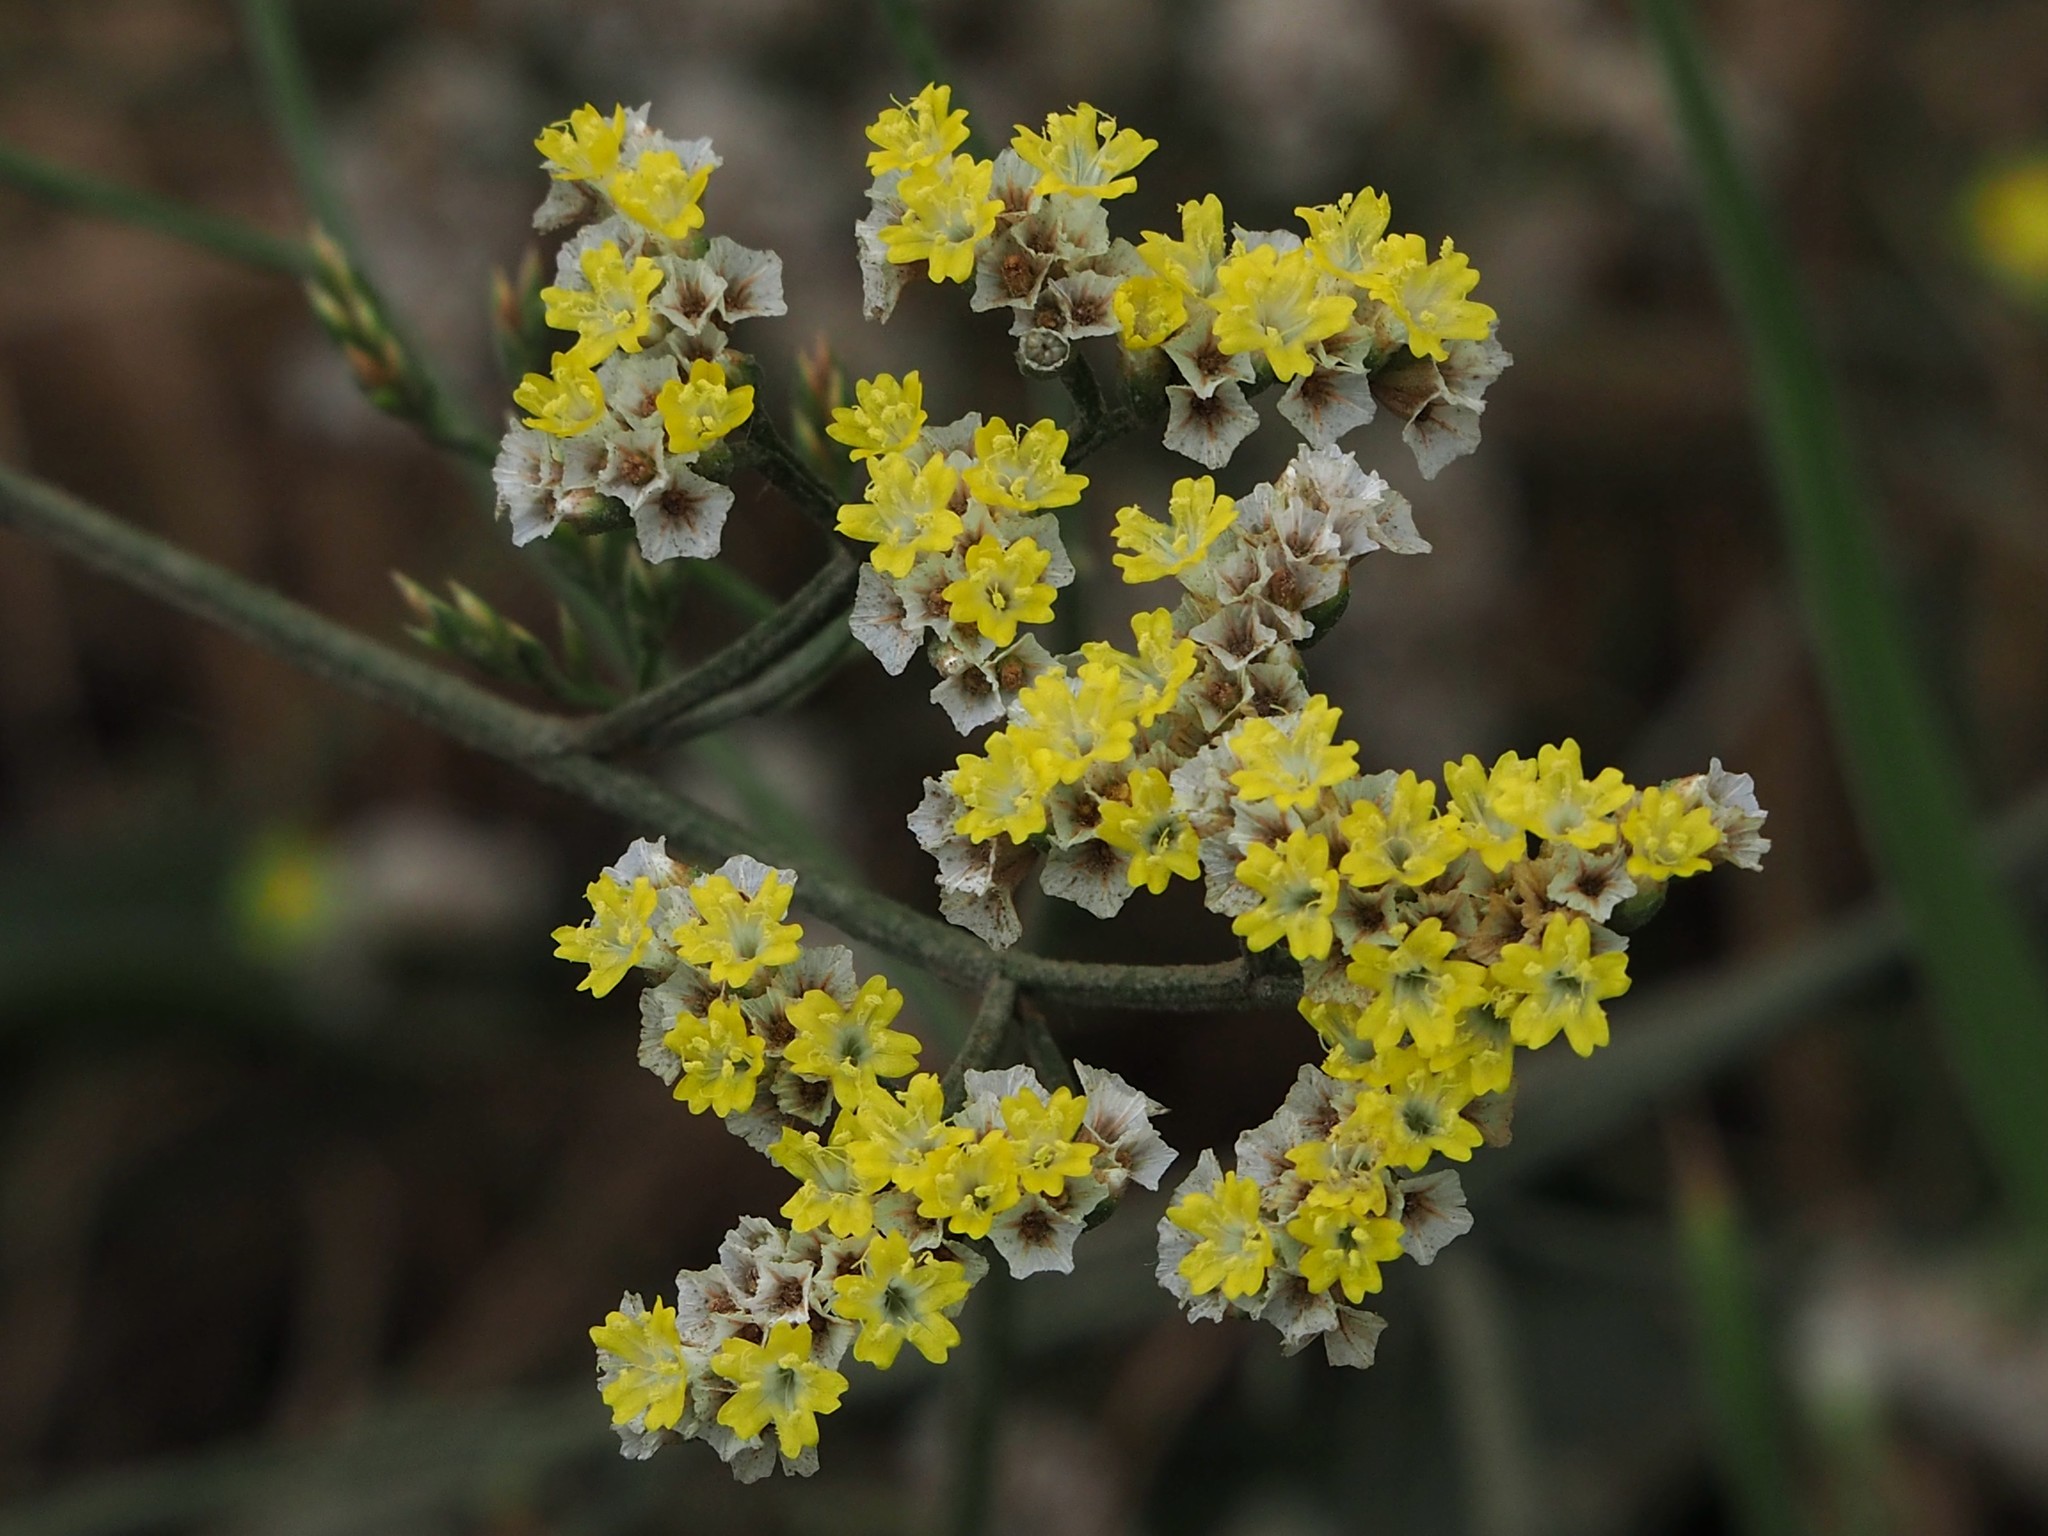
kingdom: Plantae
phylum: Tracheophyta
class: Magnoliopsida
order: Caryophyllales
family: Plumbaginaceae
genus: Limonium
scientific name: Limonium sinense
